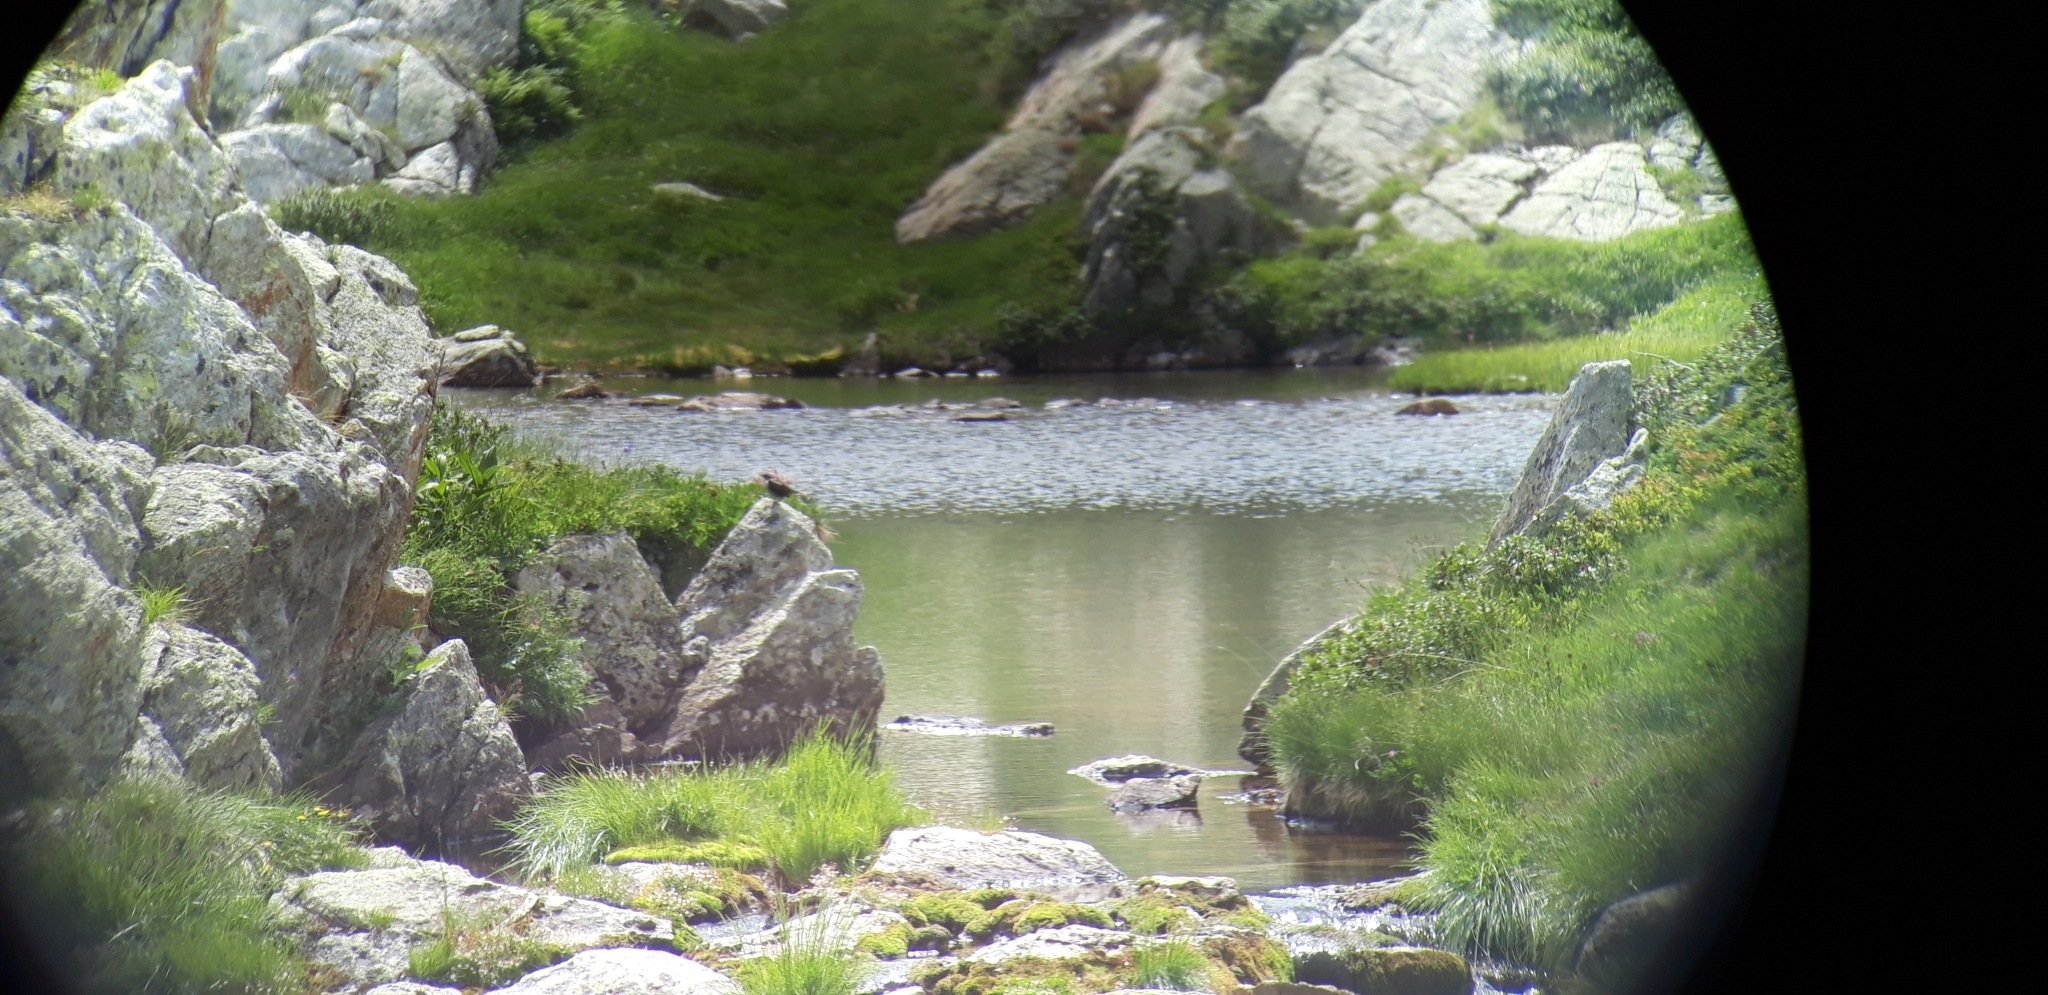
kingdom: Animalia
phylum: Chordata
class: Aves
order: Passeriformes
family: Cinclidae
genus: Cinclus
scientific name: Cinclus cinclus
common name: White-throated dipper
